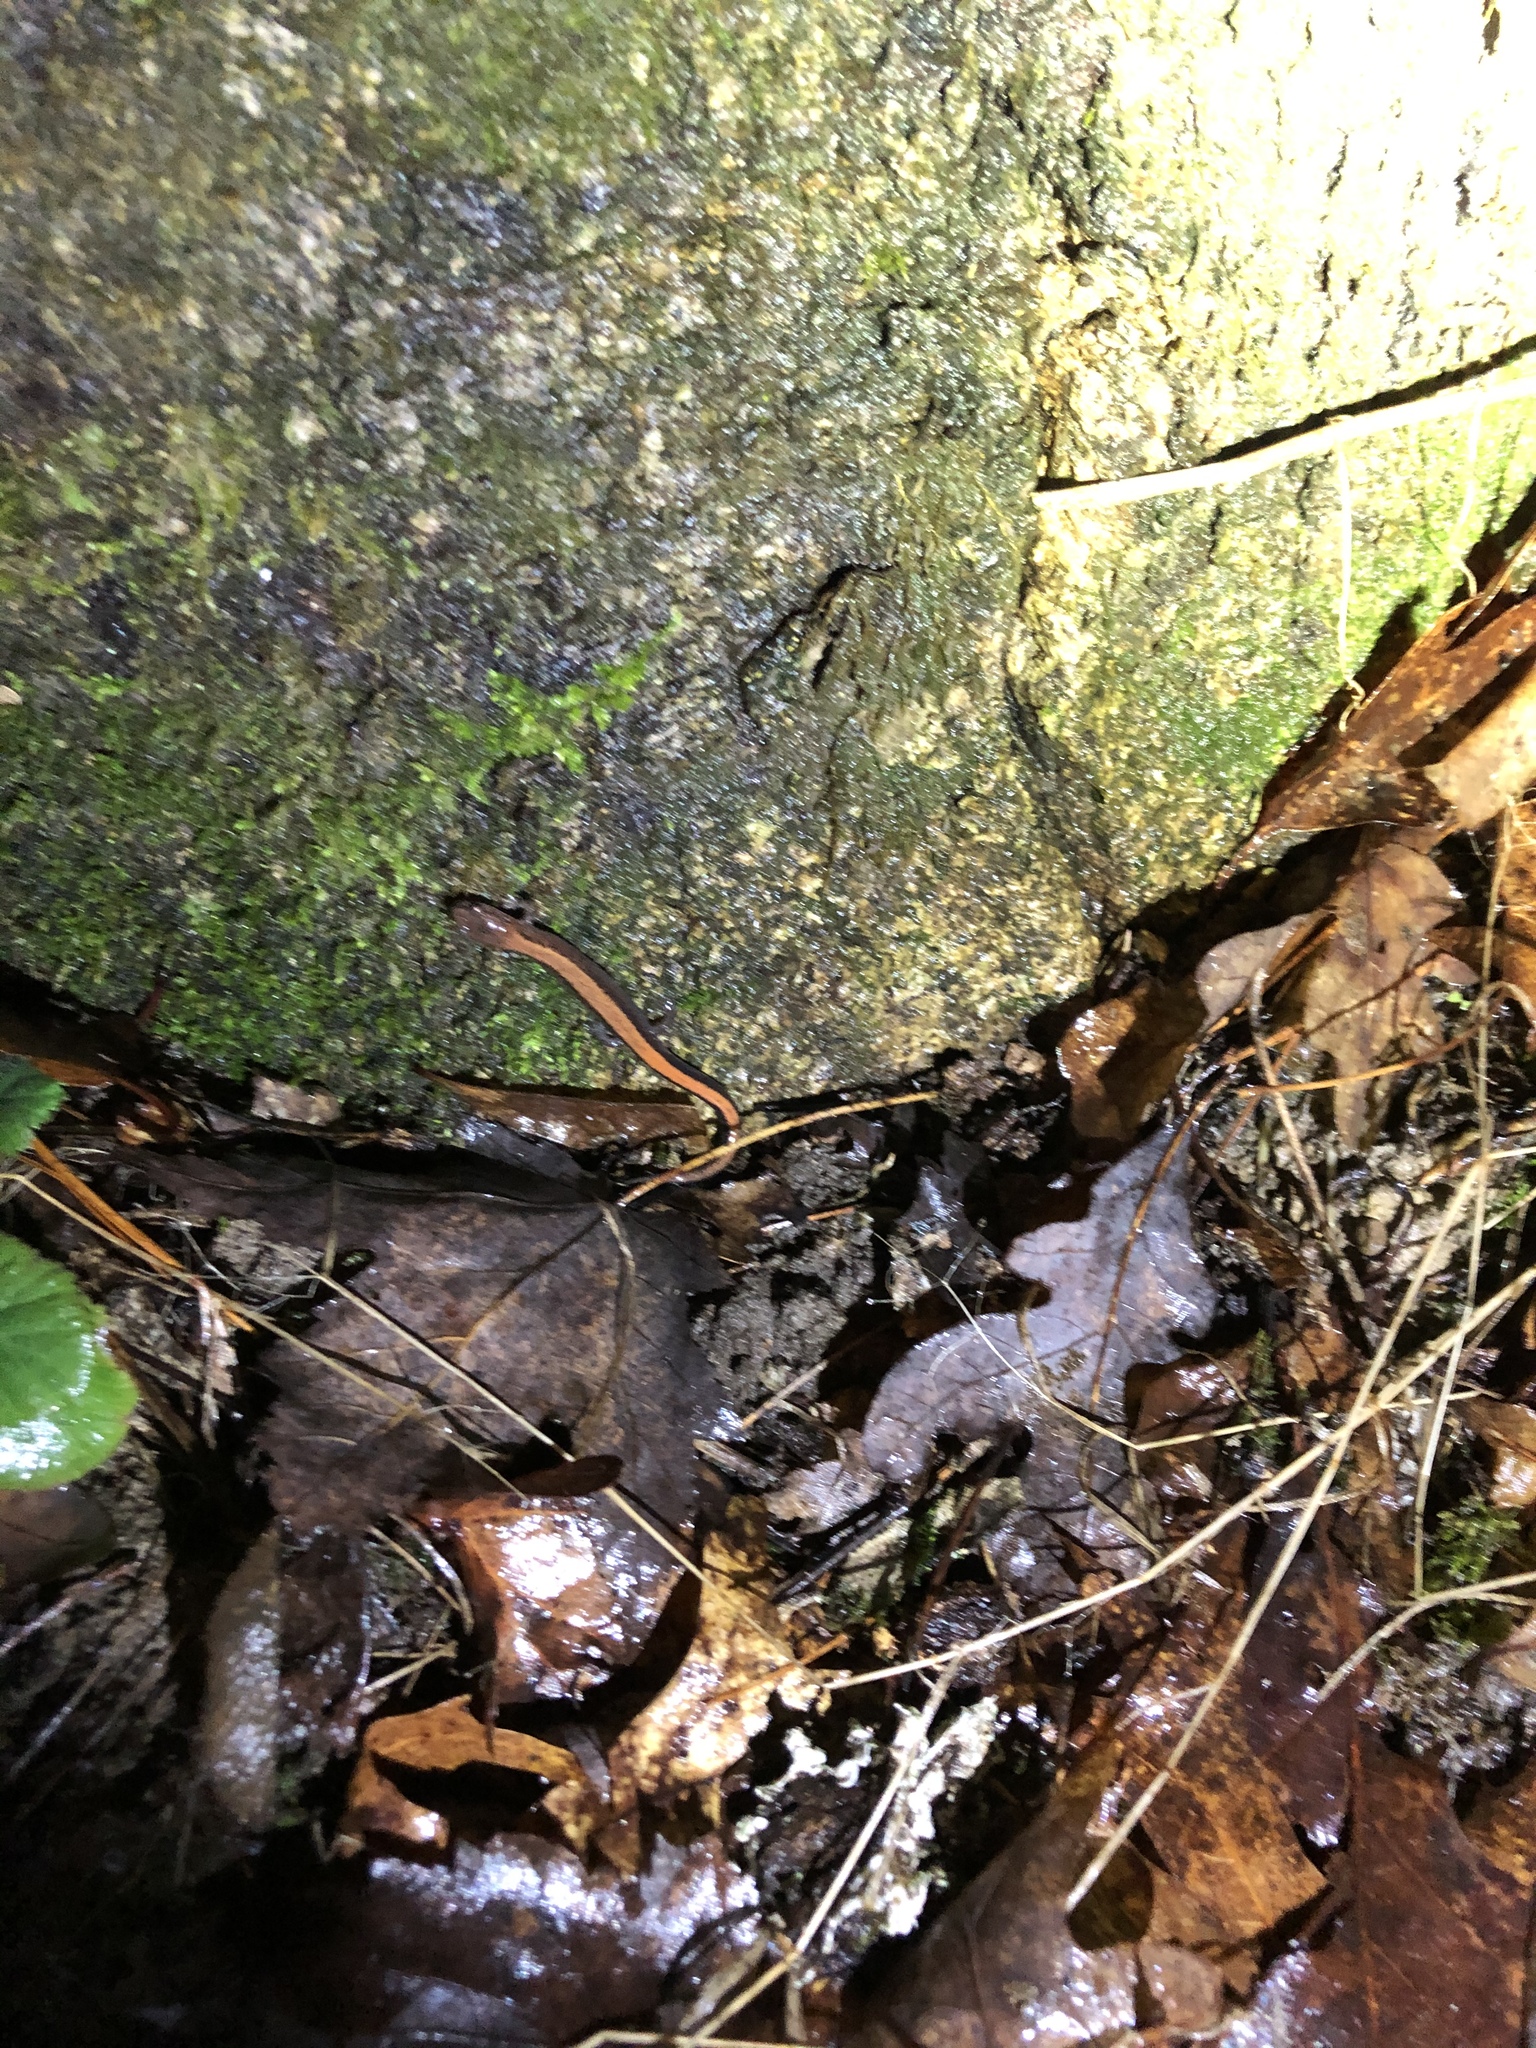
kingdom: Animalia
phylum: Chordata
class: Amphibia
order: Caudata
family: Plethodontidae
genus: Plethodon
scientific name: Plethodon cinereus
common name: Redback salamander
